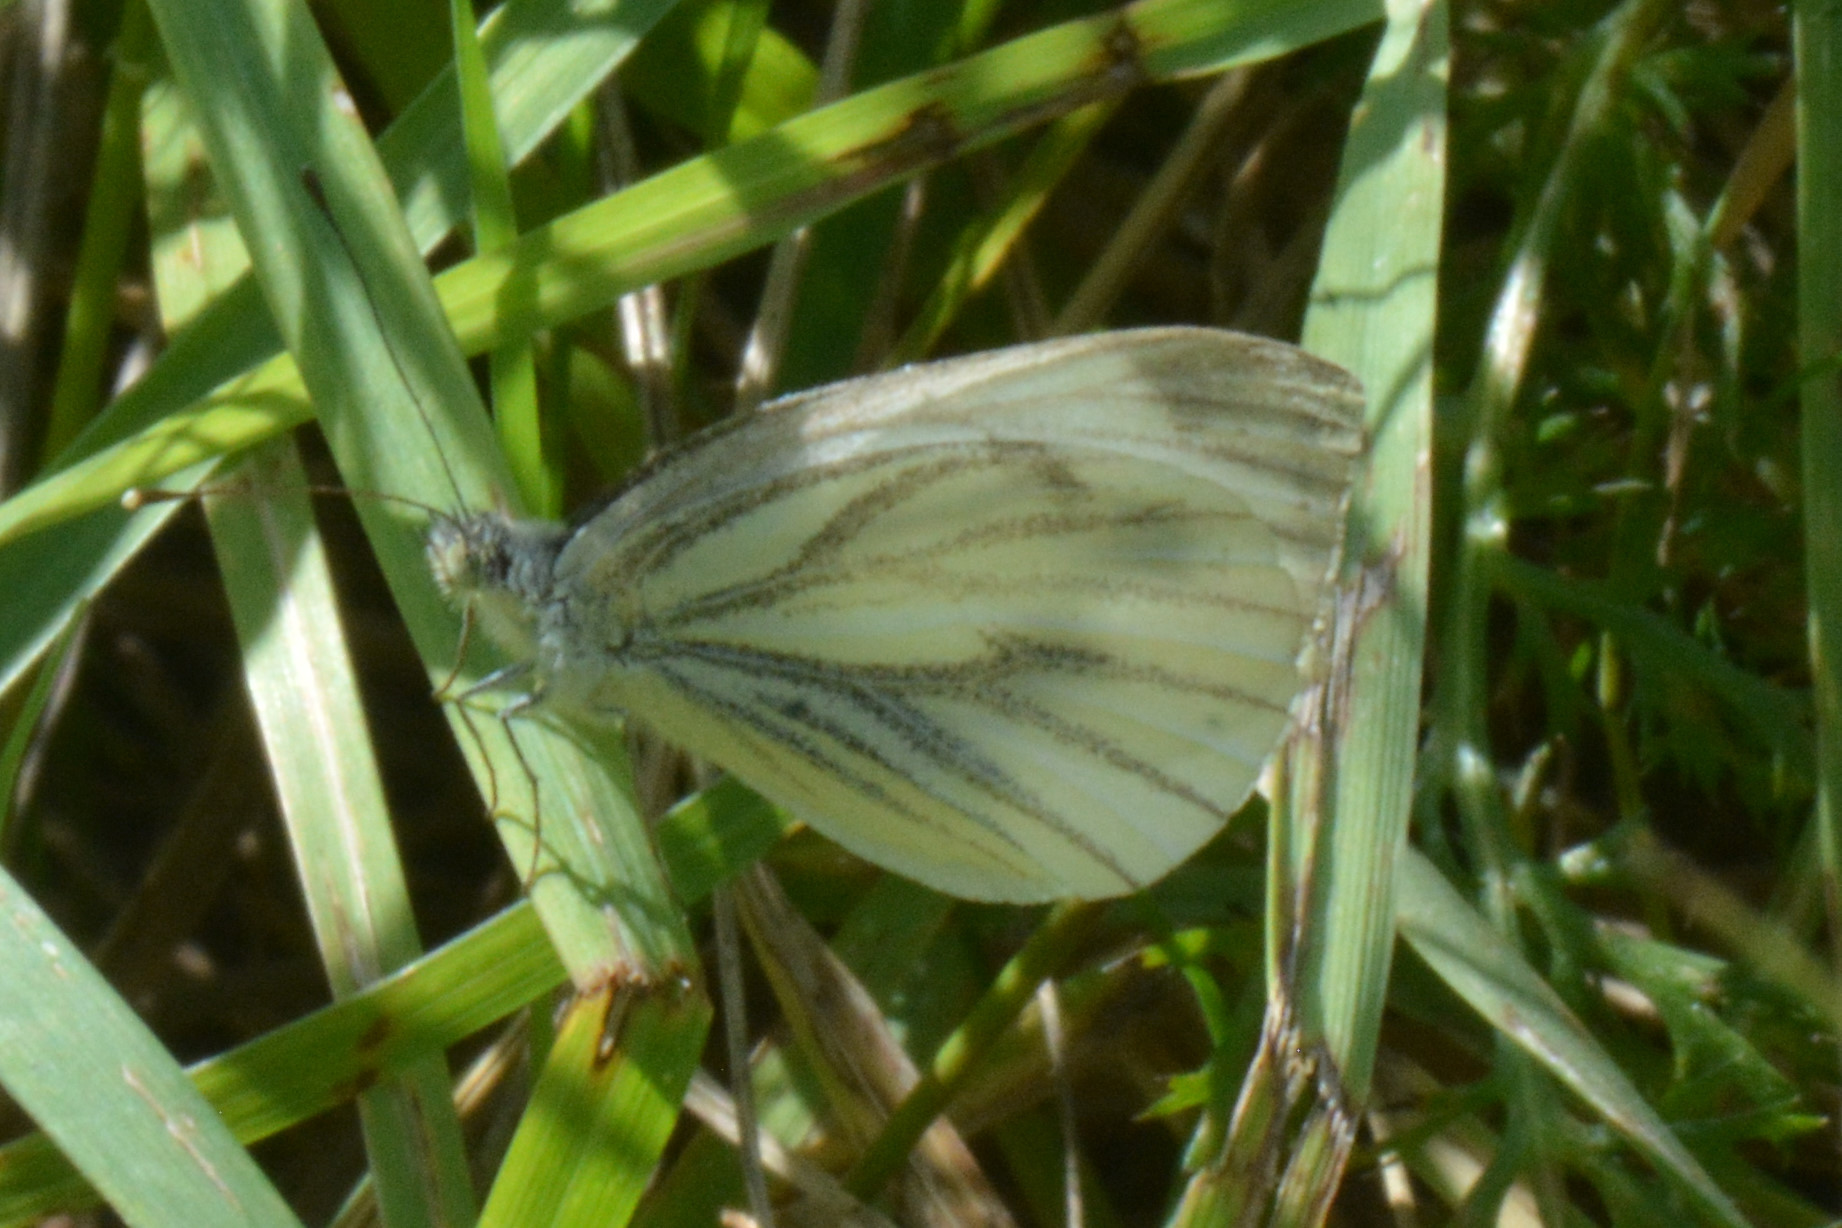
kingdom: Animalia
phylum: Arthropoda
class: Insecta
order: Lepidoptera
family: Pieridae
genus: Pieris
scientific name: Pieris napi
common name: Green-veined white
